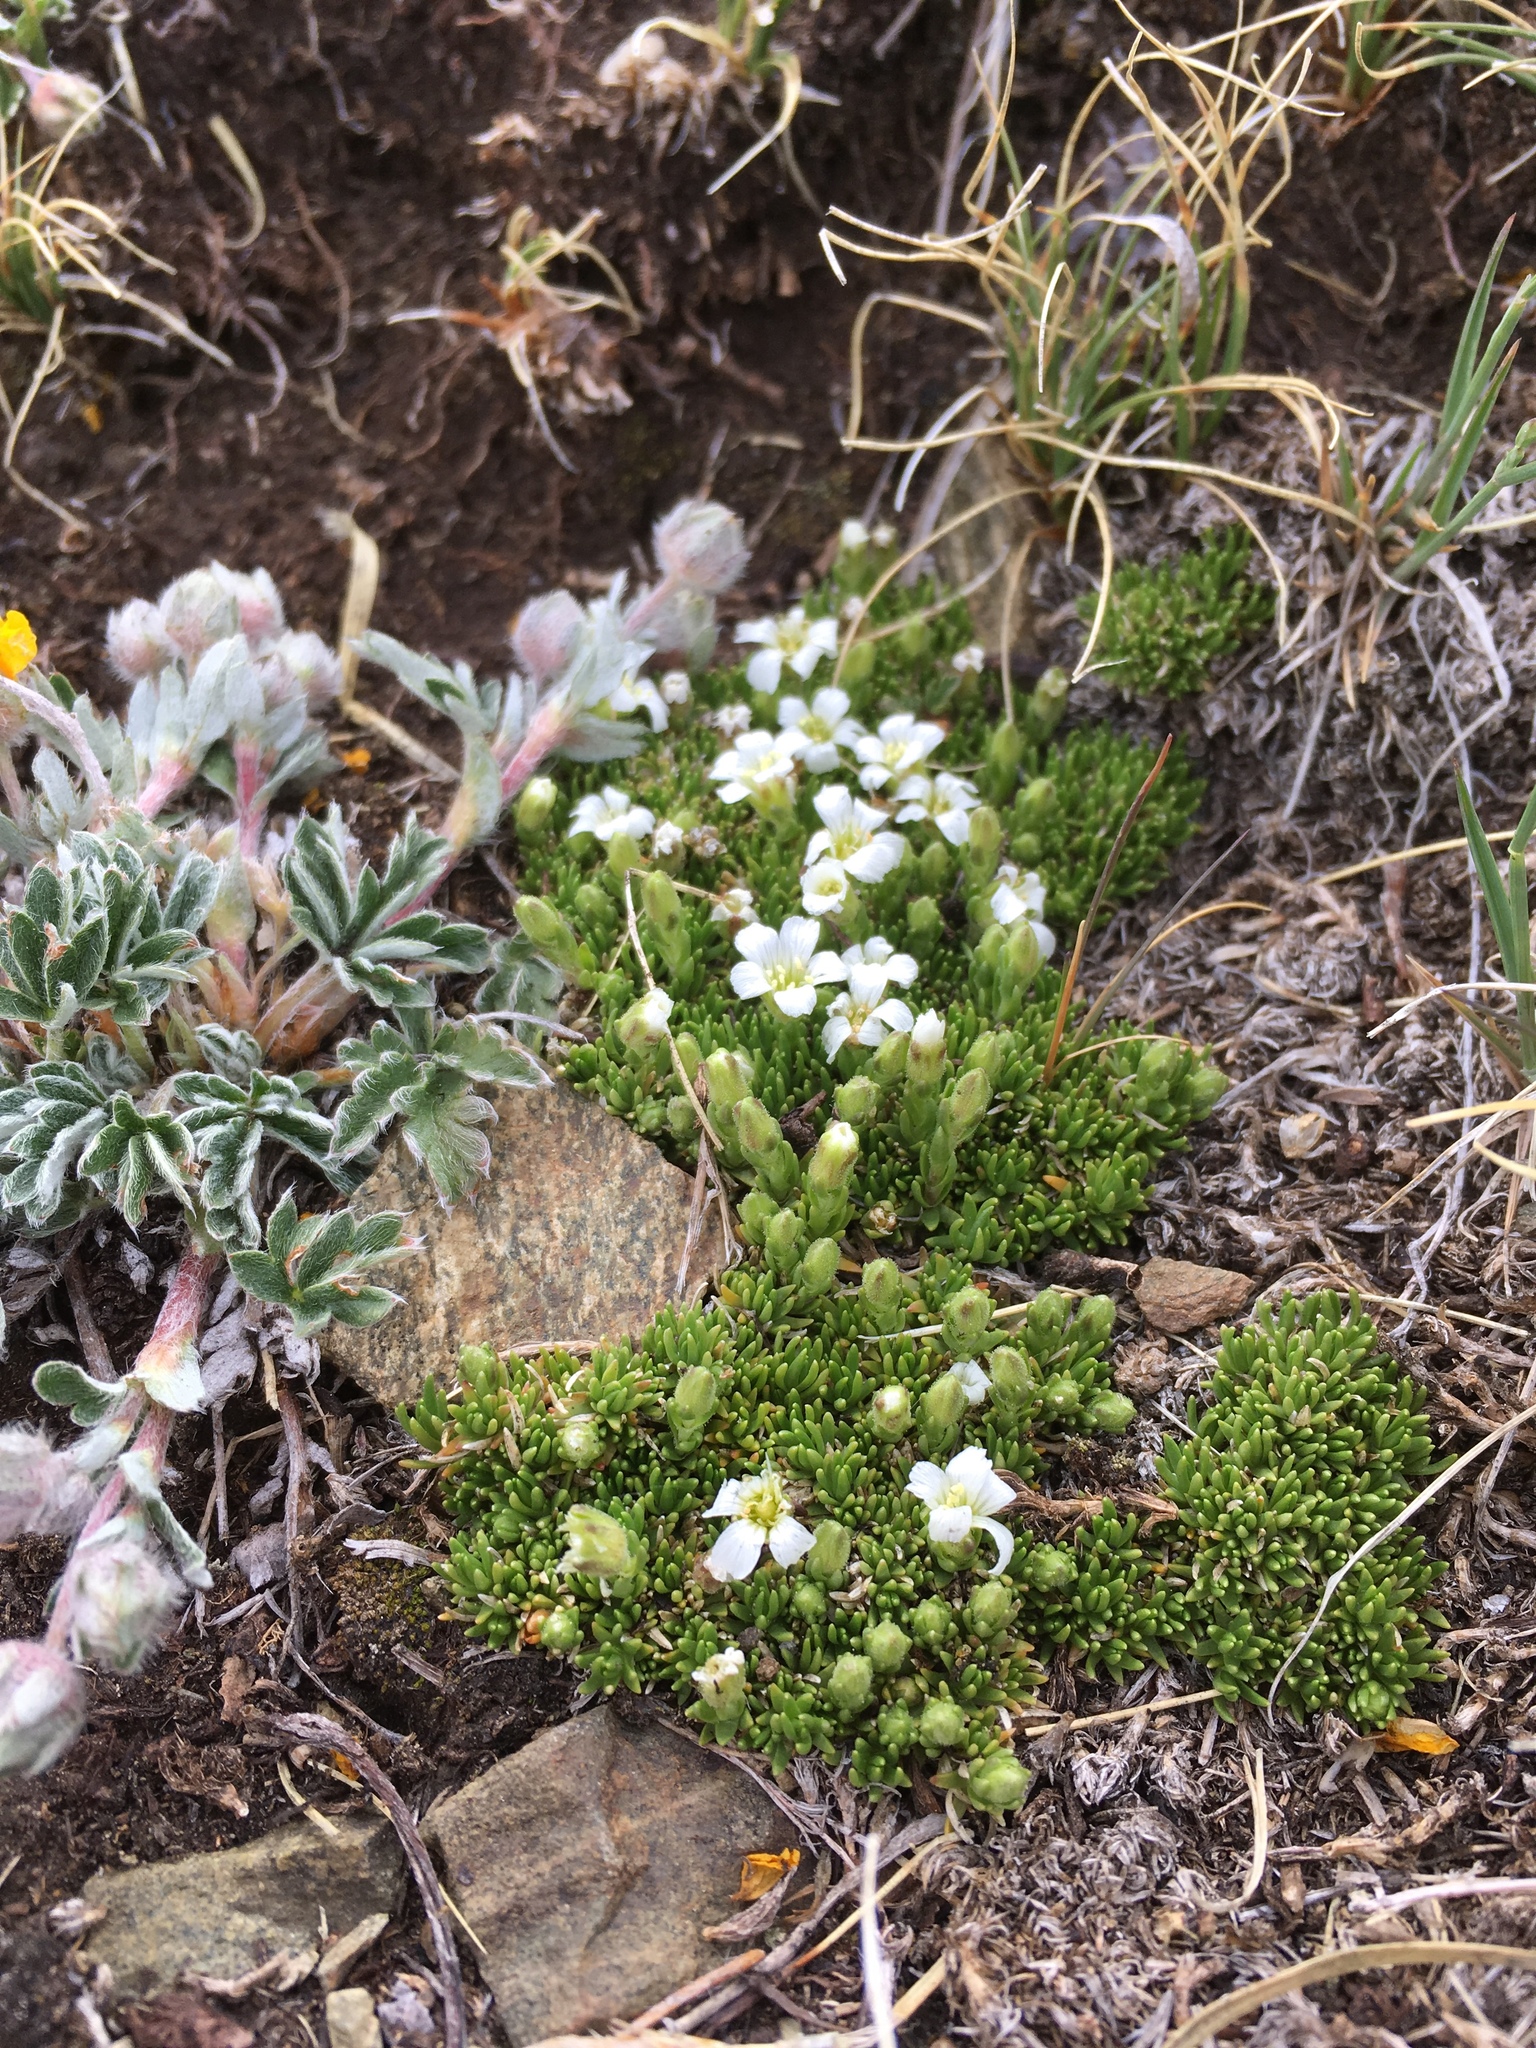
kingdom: Plantae
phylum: Tracheophyta
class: Magnoliopsida
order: Caryophyllales
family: Caryophyllaceae
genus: Cherleria
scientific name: Cherleria obtusiloba
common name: Alpine stitchwort
